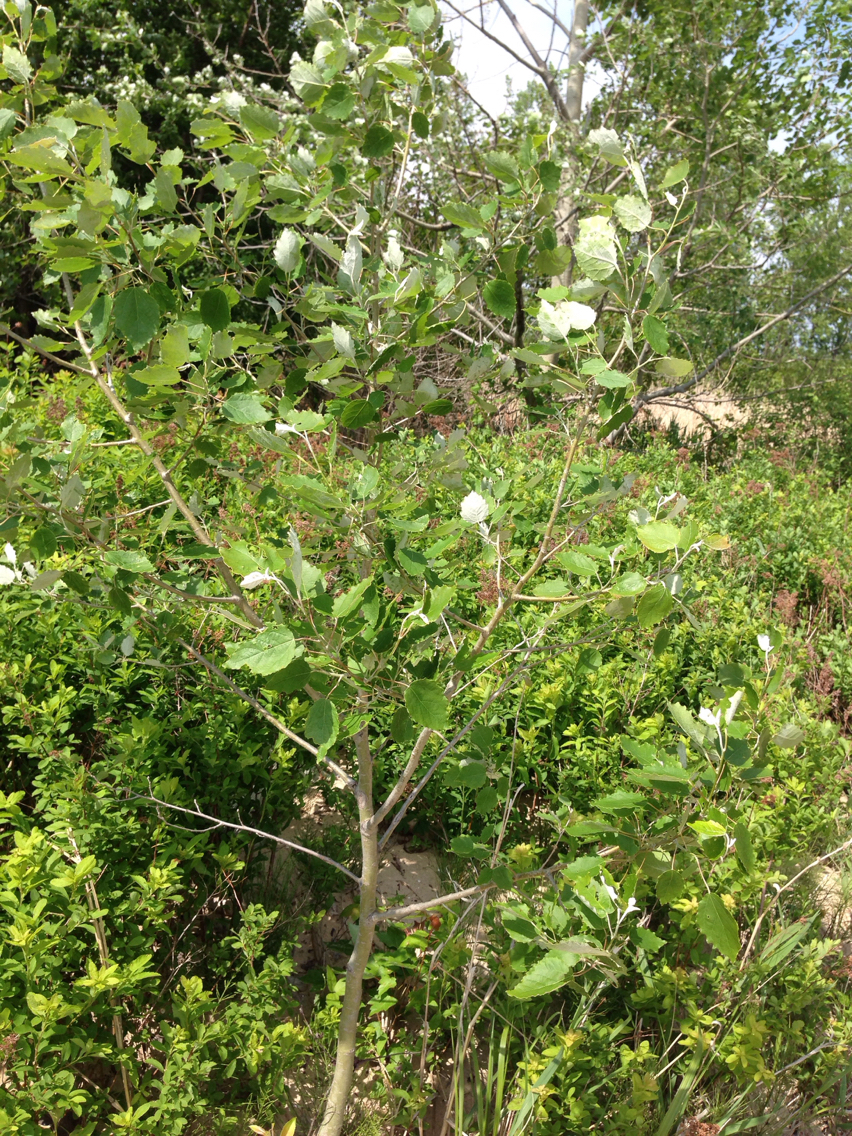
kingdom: Plantae
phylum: Tracheophyta
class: Magnoliopsida
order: Rosales
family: Rosaceae
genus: Spiraea
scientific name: Spiraea alba
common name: Pale bridewort
